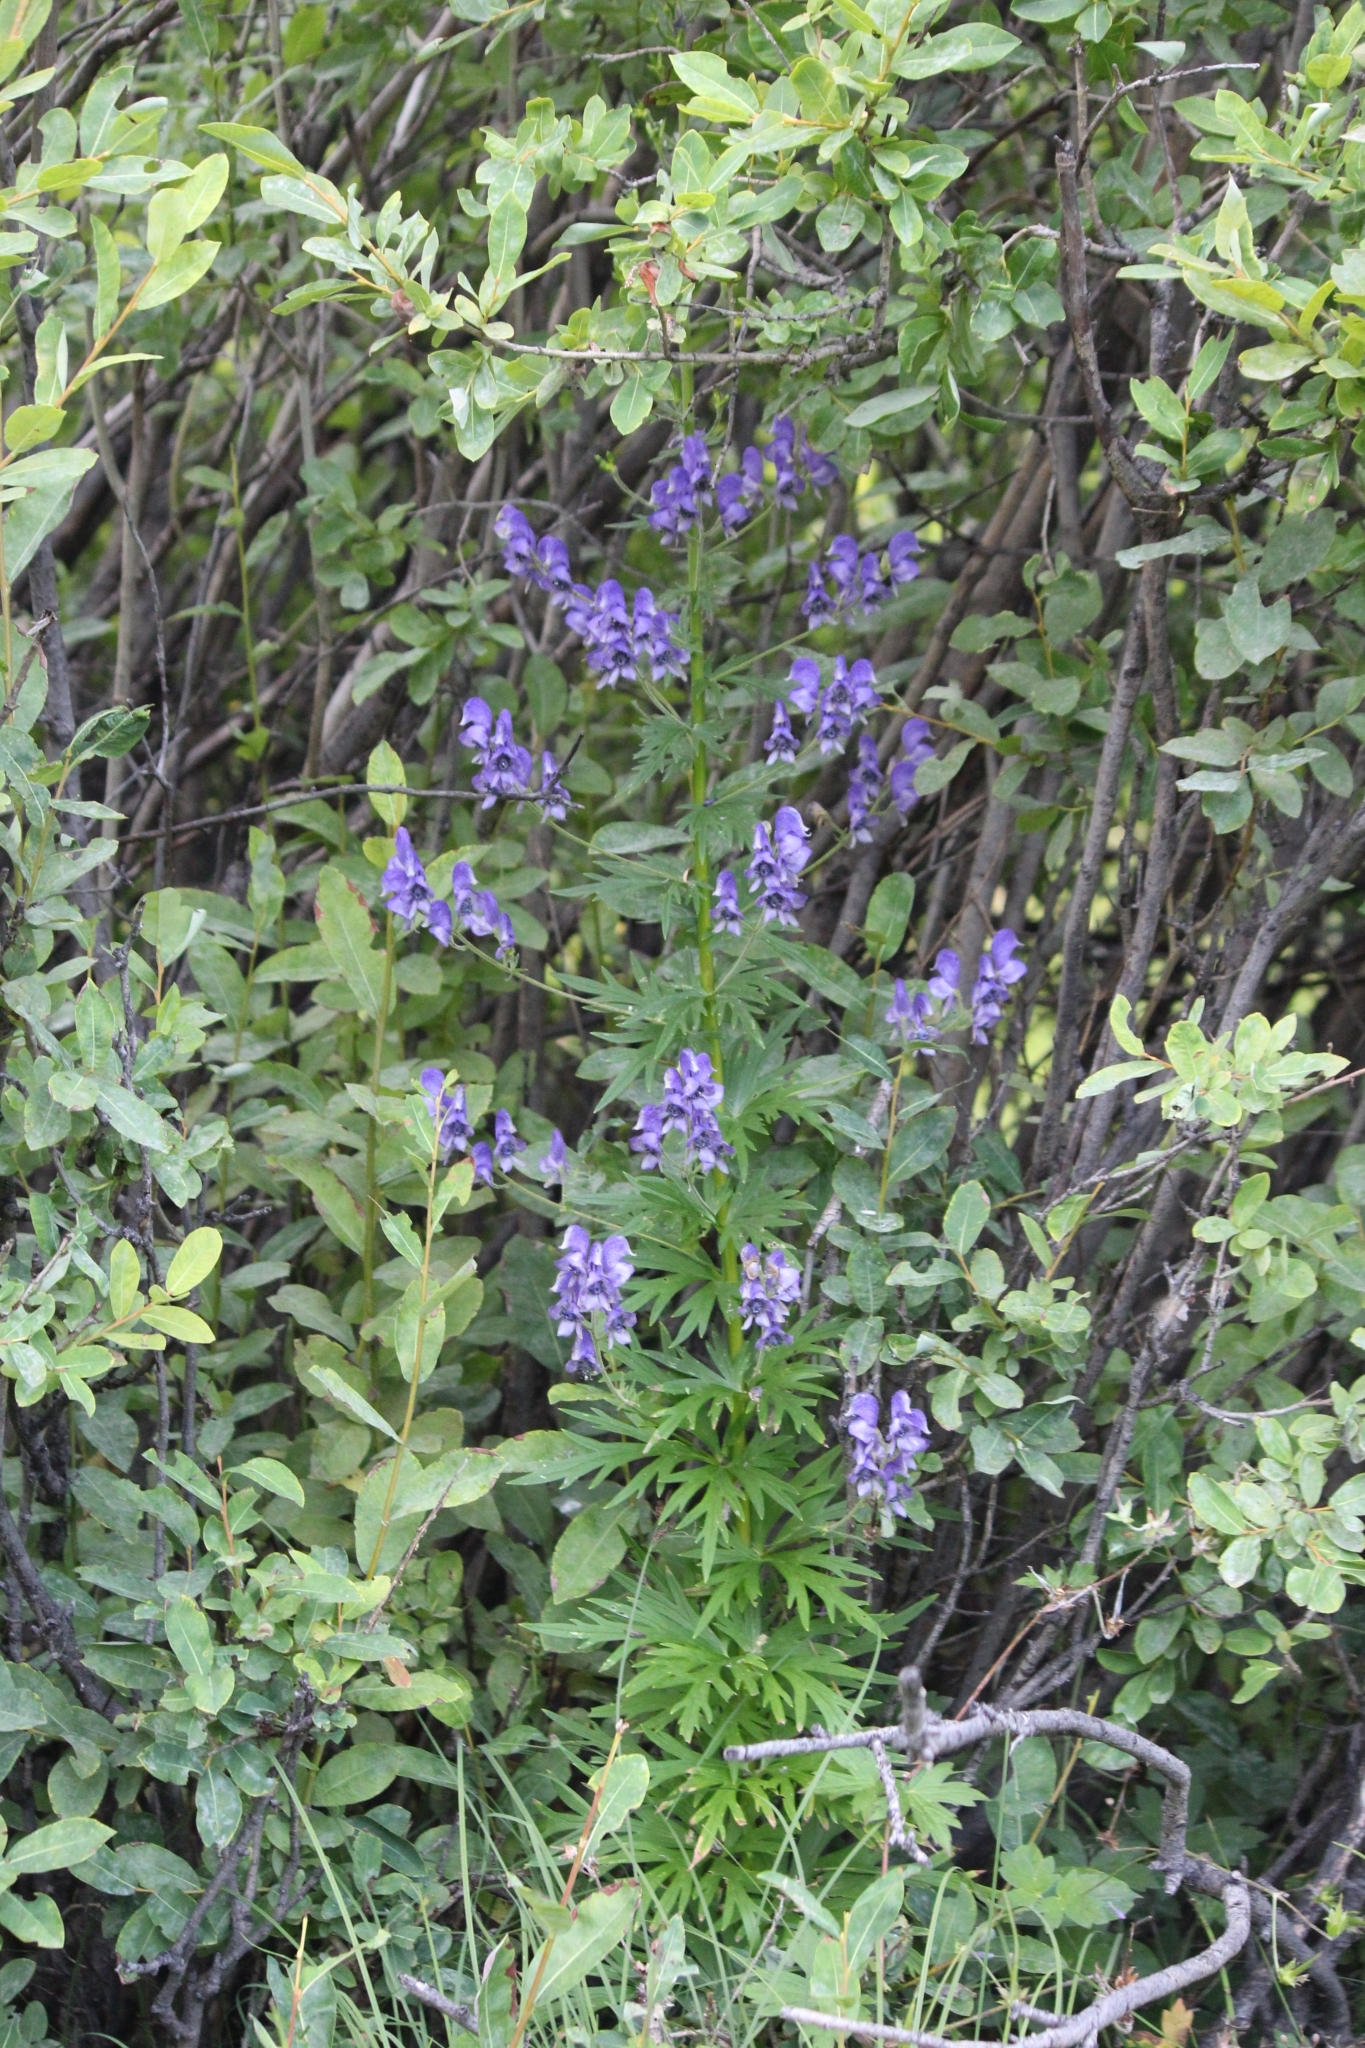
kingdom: Plantae
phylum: Tracheophyta
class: Magnoliopsida
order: Ranunculales
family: Ranunculaceae
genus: Aconitum
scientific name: Aconitum baicalense
